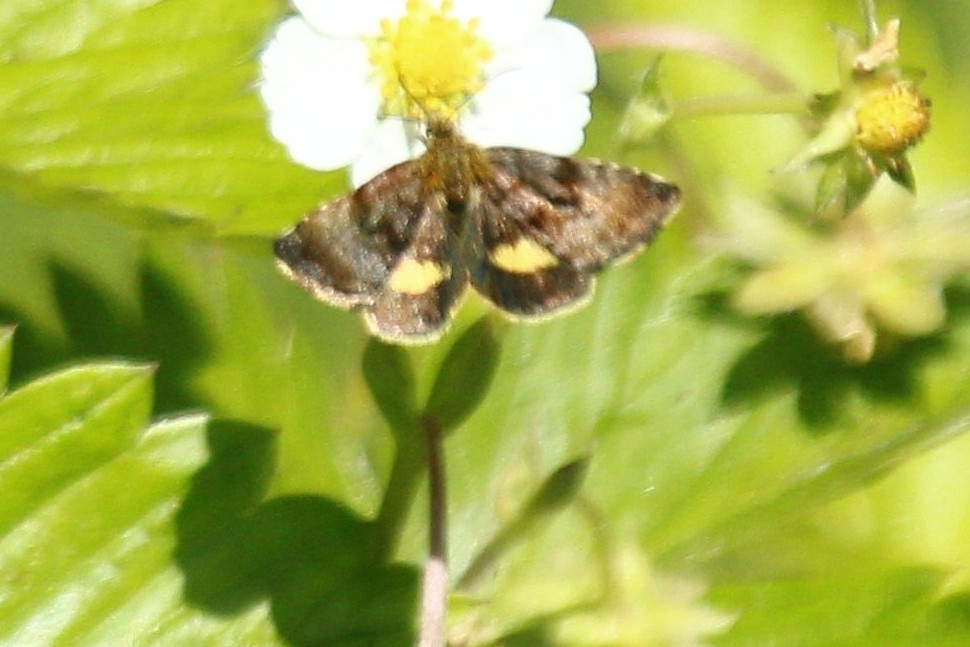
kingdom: Animalia
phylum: Arthropoda
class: Insecta
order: Lepidoptera
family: Noctuidae
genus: Panemeria
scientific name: Panemeria tenebrata
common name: Small yellow underwing
